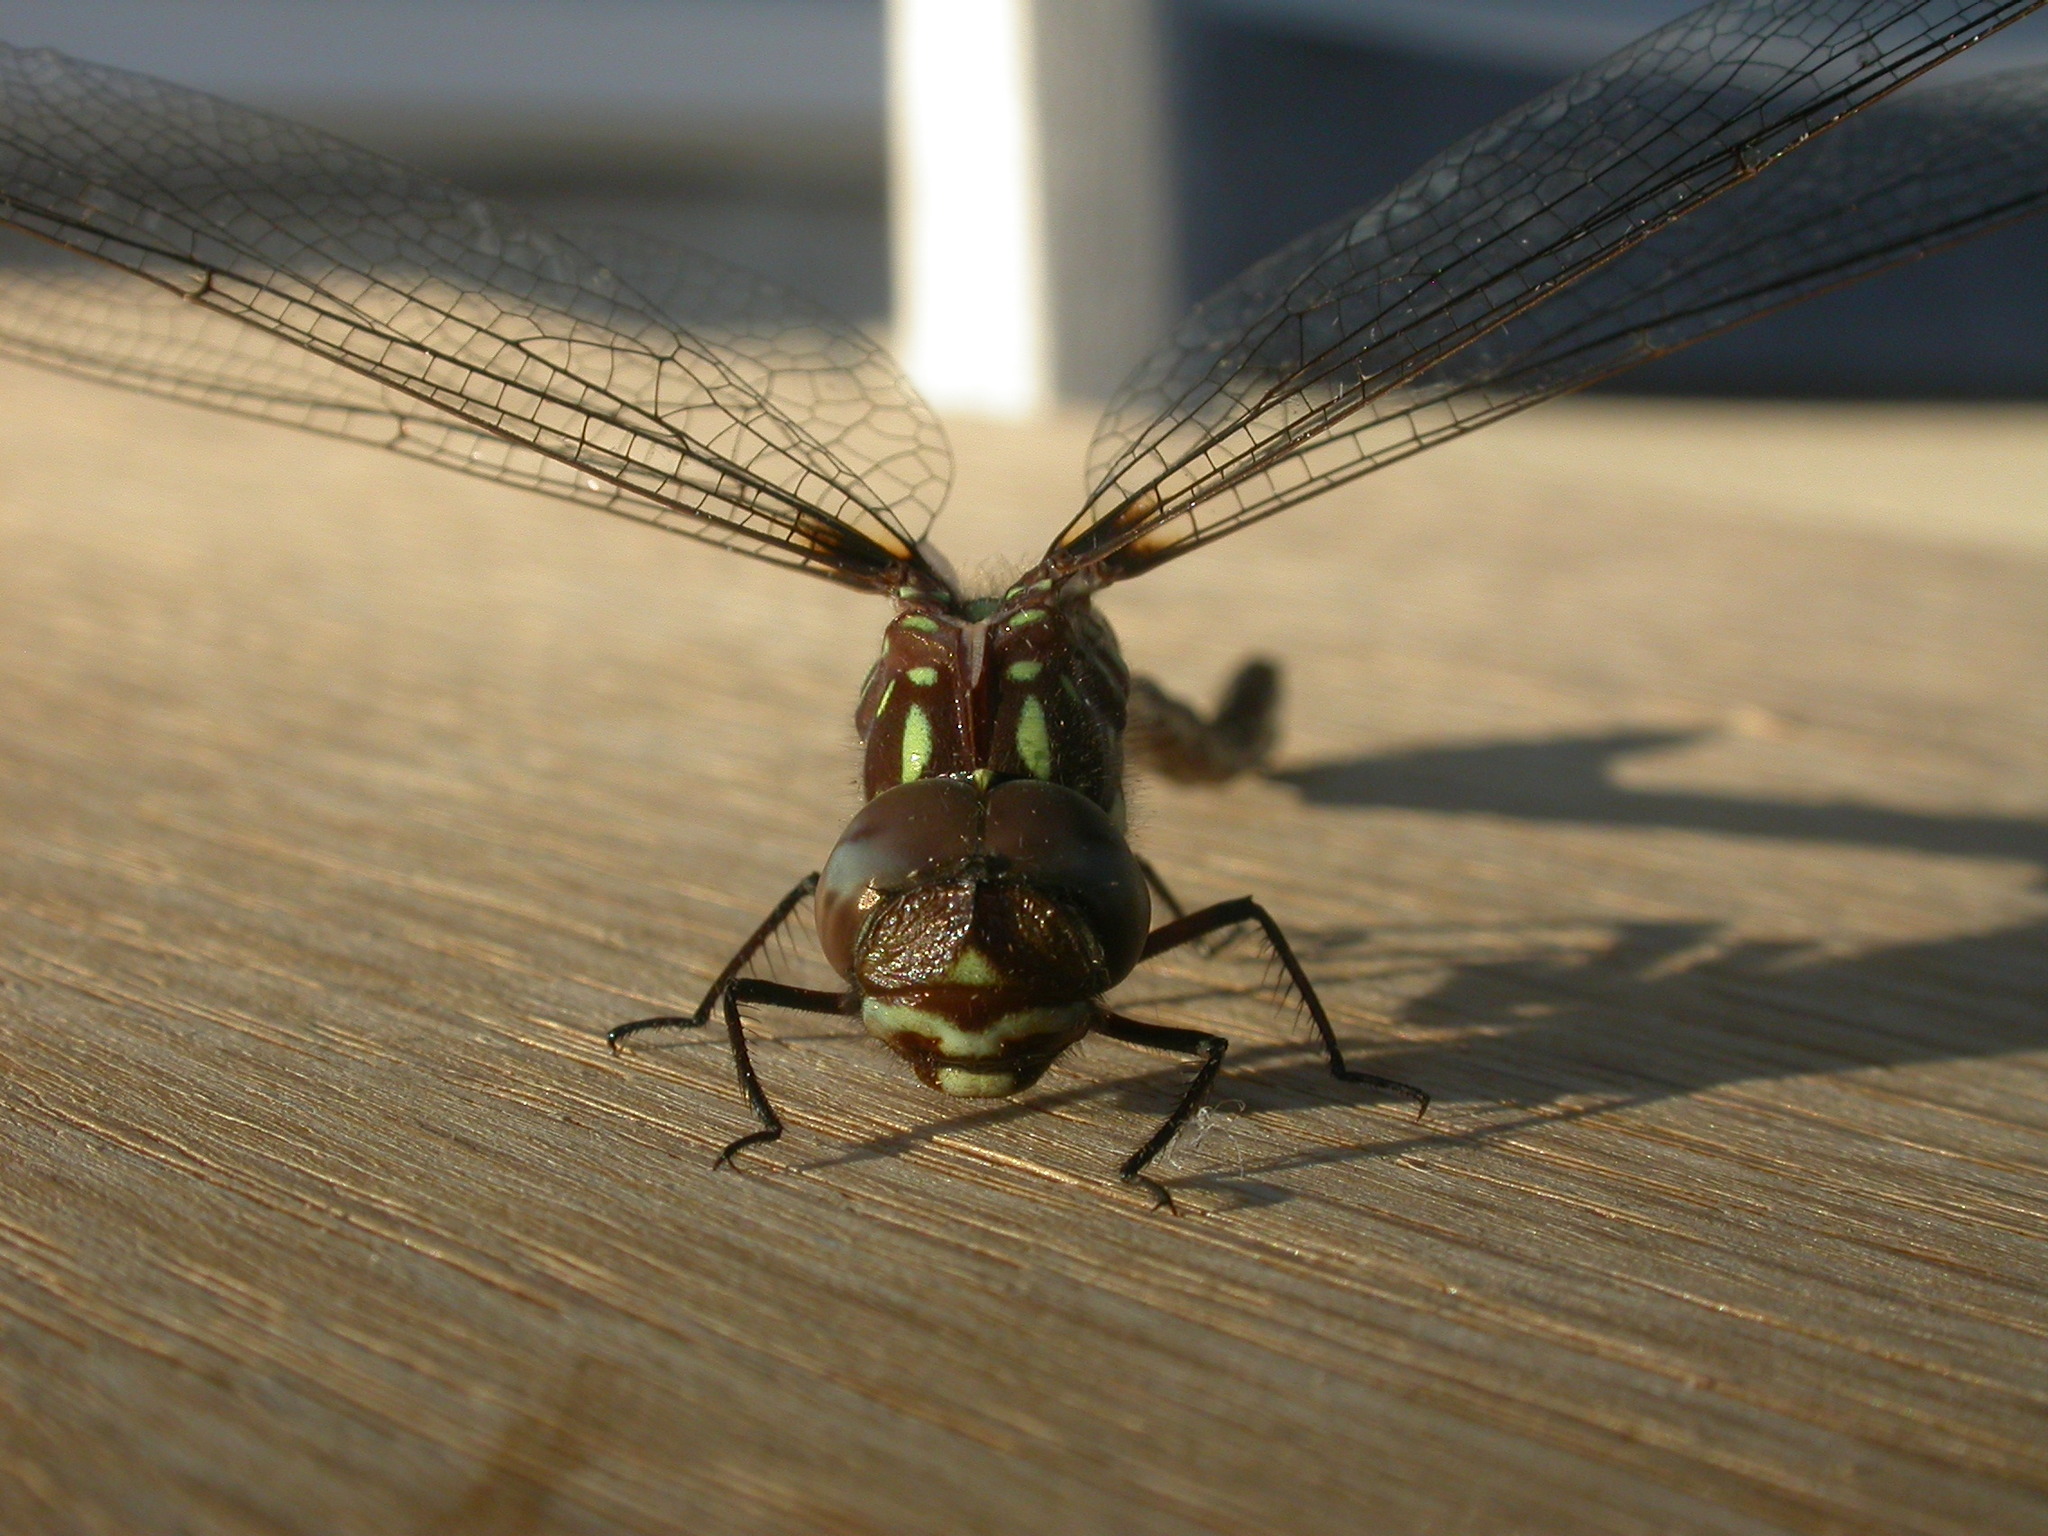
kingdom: Animalia
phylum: Arthropoda
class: Insecta
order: Odonata
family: Aeshnidae
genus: Dendroaeschna
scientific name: Dendroaeschna conspersa
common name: Wide-faced darner
